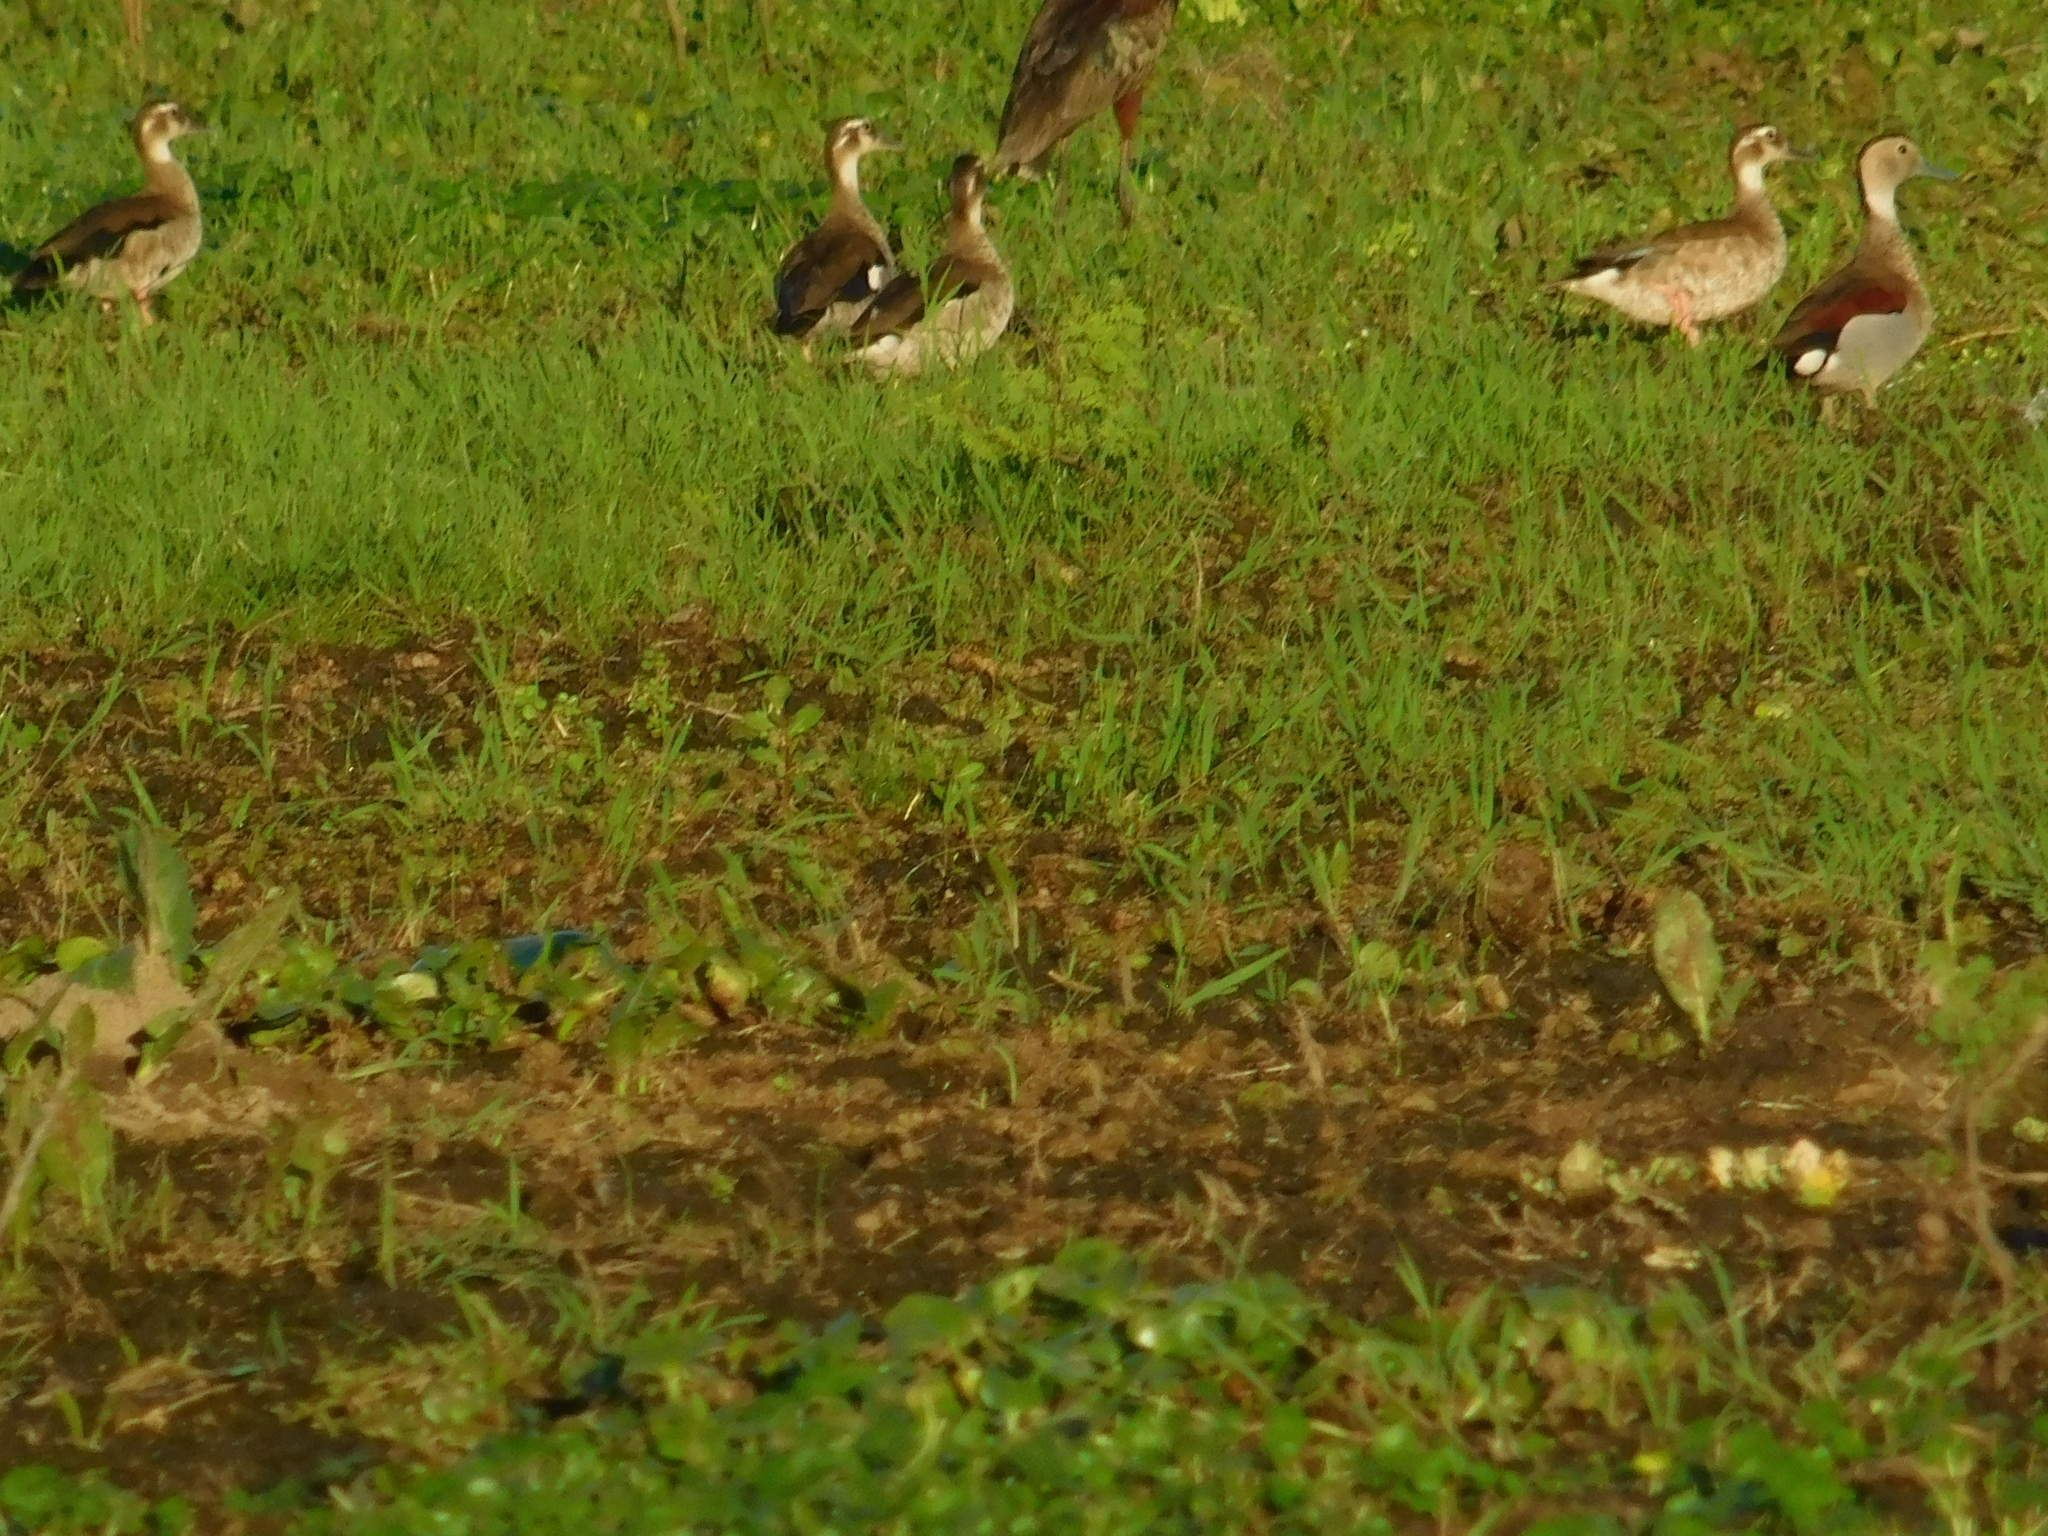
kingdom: Animalia
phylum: Chordata
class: Aves
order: Anseriformes
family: Anatidae
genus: Callonetta
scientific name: Callonetta leucophrys
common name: Ringed teal
